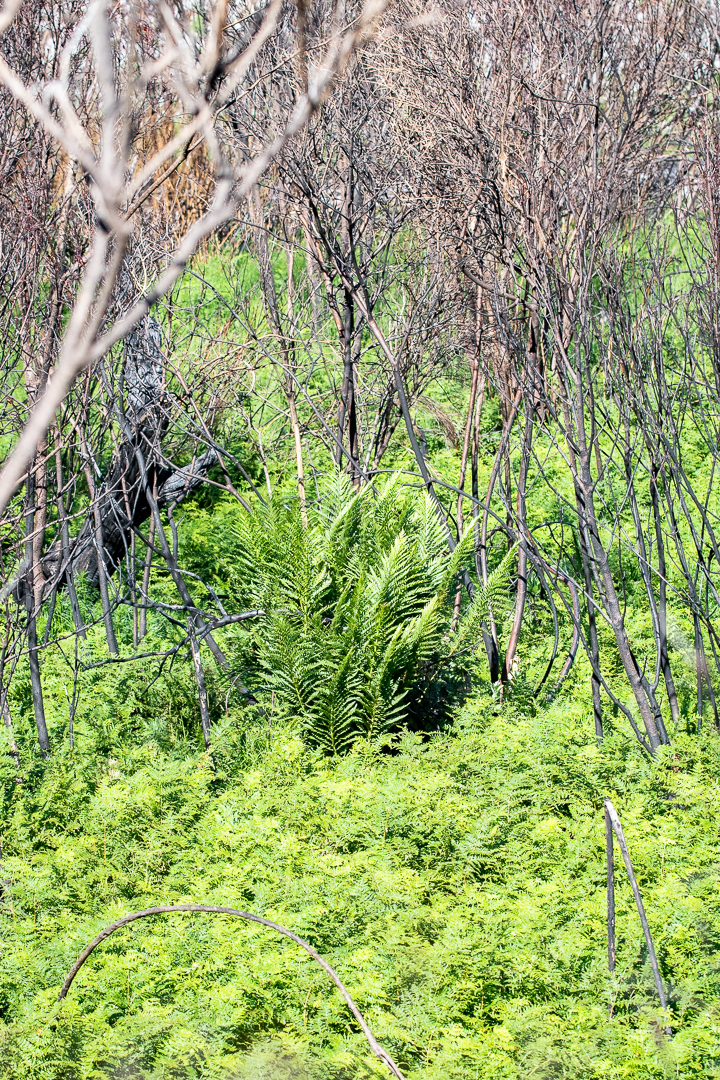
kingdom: Plantae
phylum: Tracheophyta
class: Polypodiopsida
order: Osmundales
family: Osmundaceae
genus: Todea
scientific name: Todea barbara
